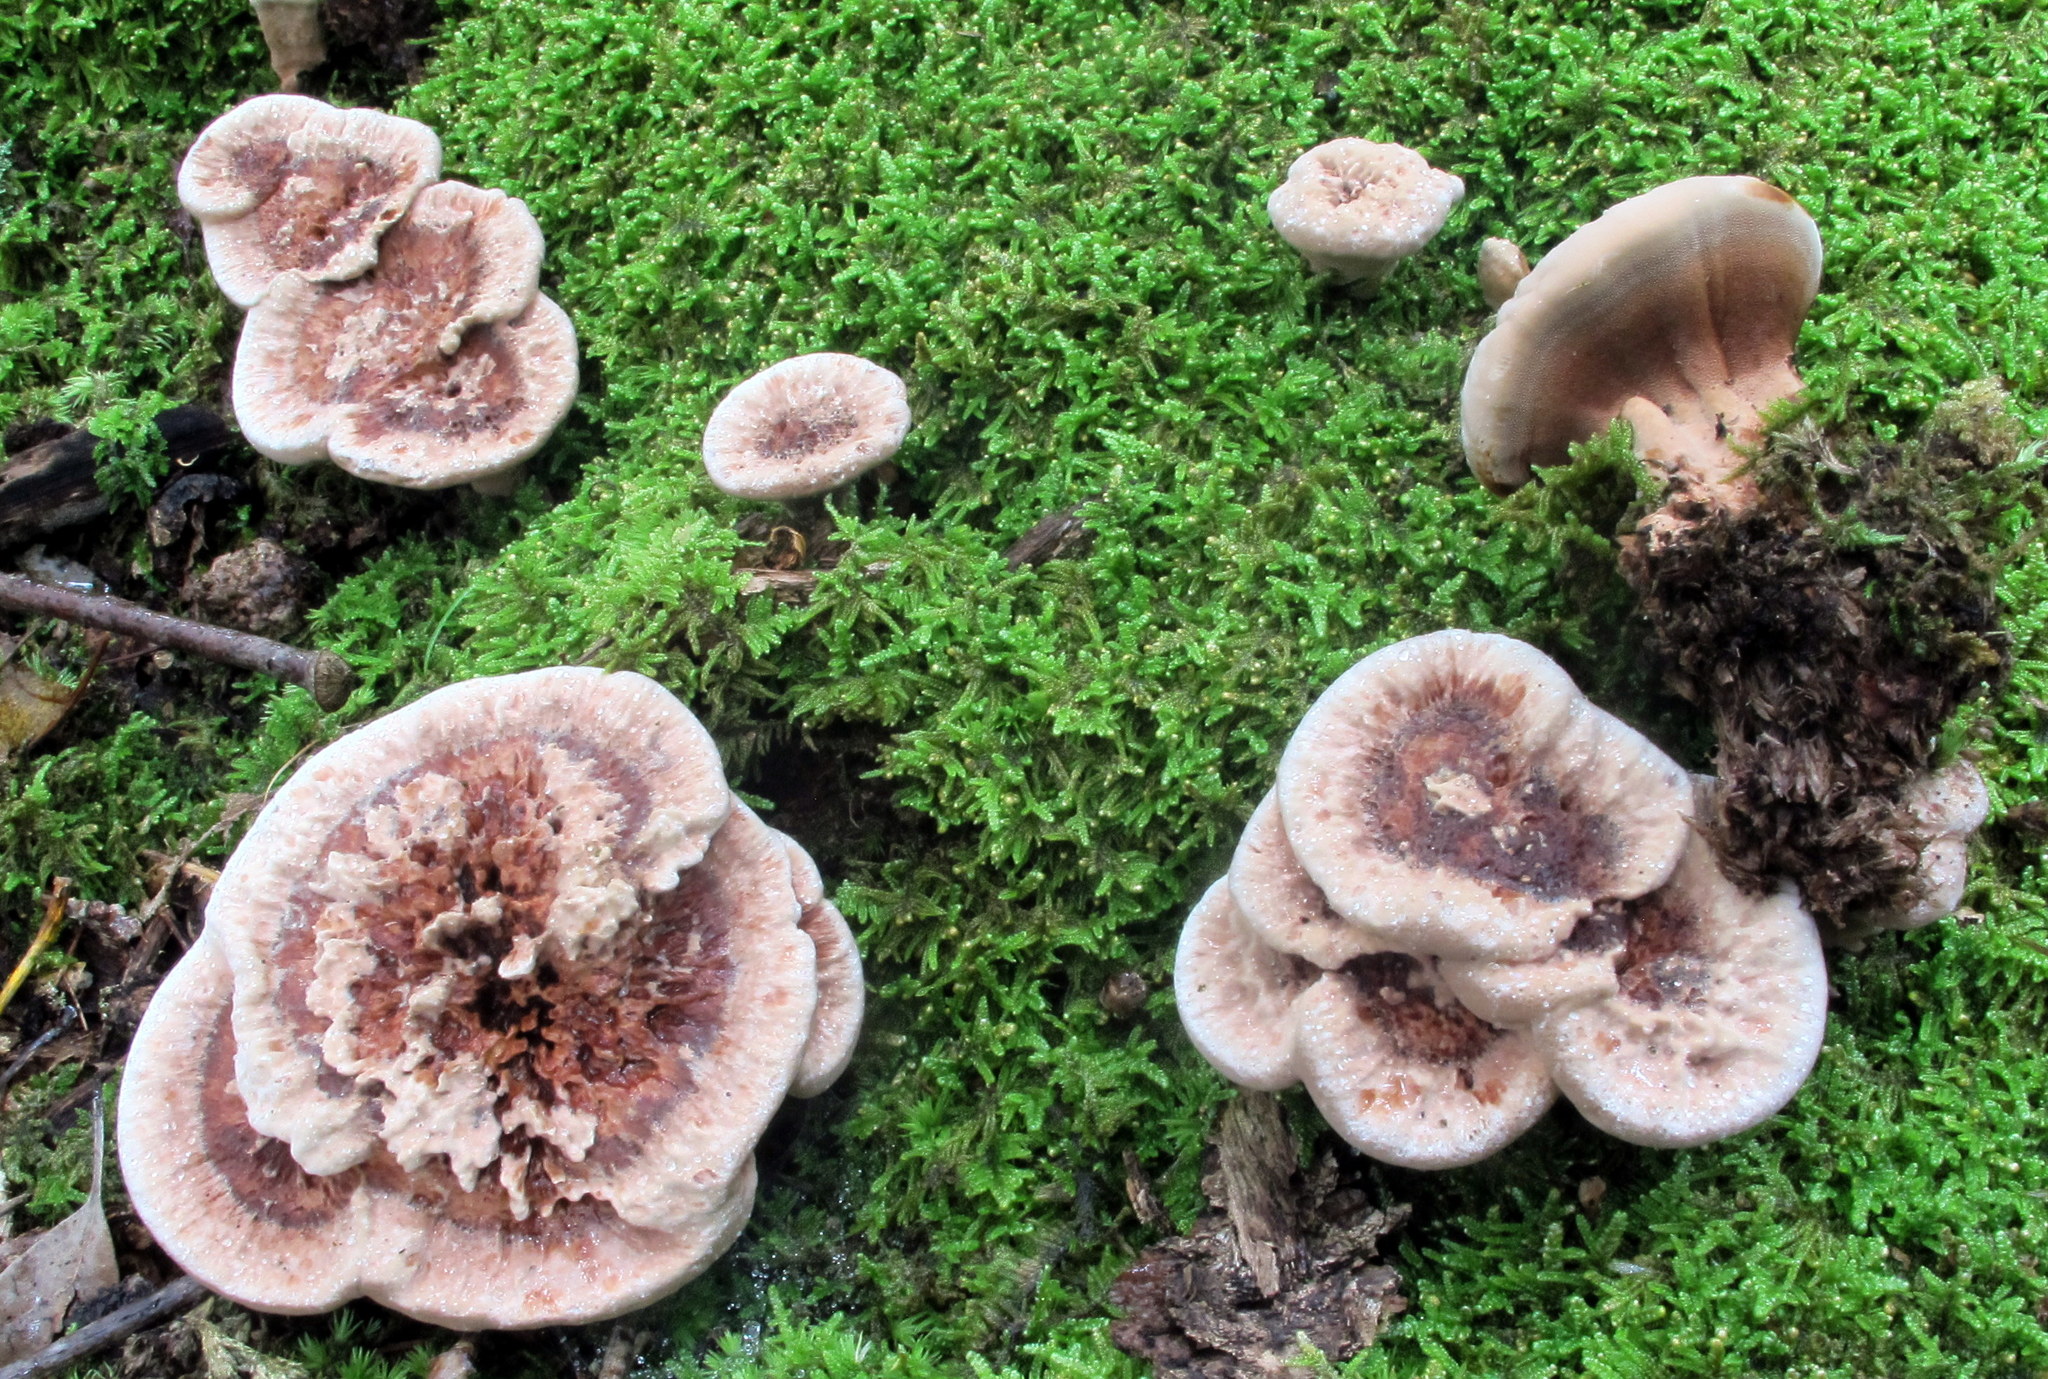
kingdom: Fungi
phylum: Basidiomycota
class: Agaricomycetes
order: Thelephorales
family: Bankeraceae
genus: Hydnellum
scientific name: Hydnellum scrobiculatum
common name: Ridged tooth
